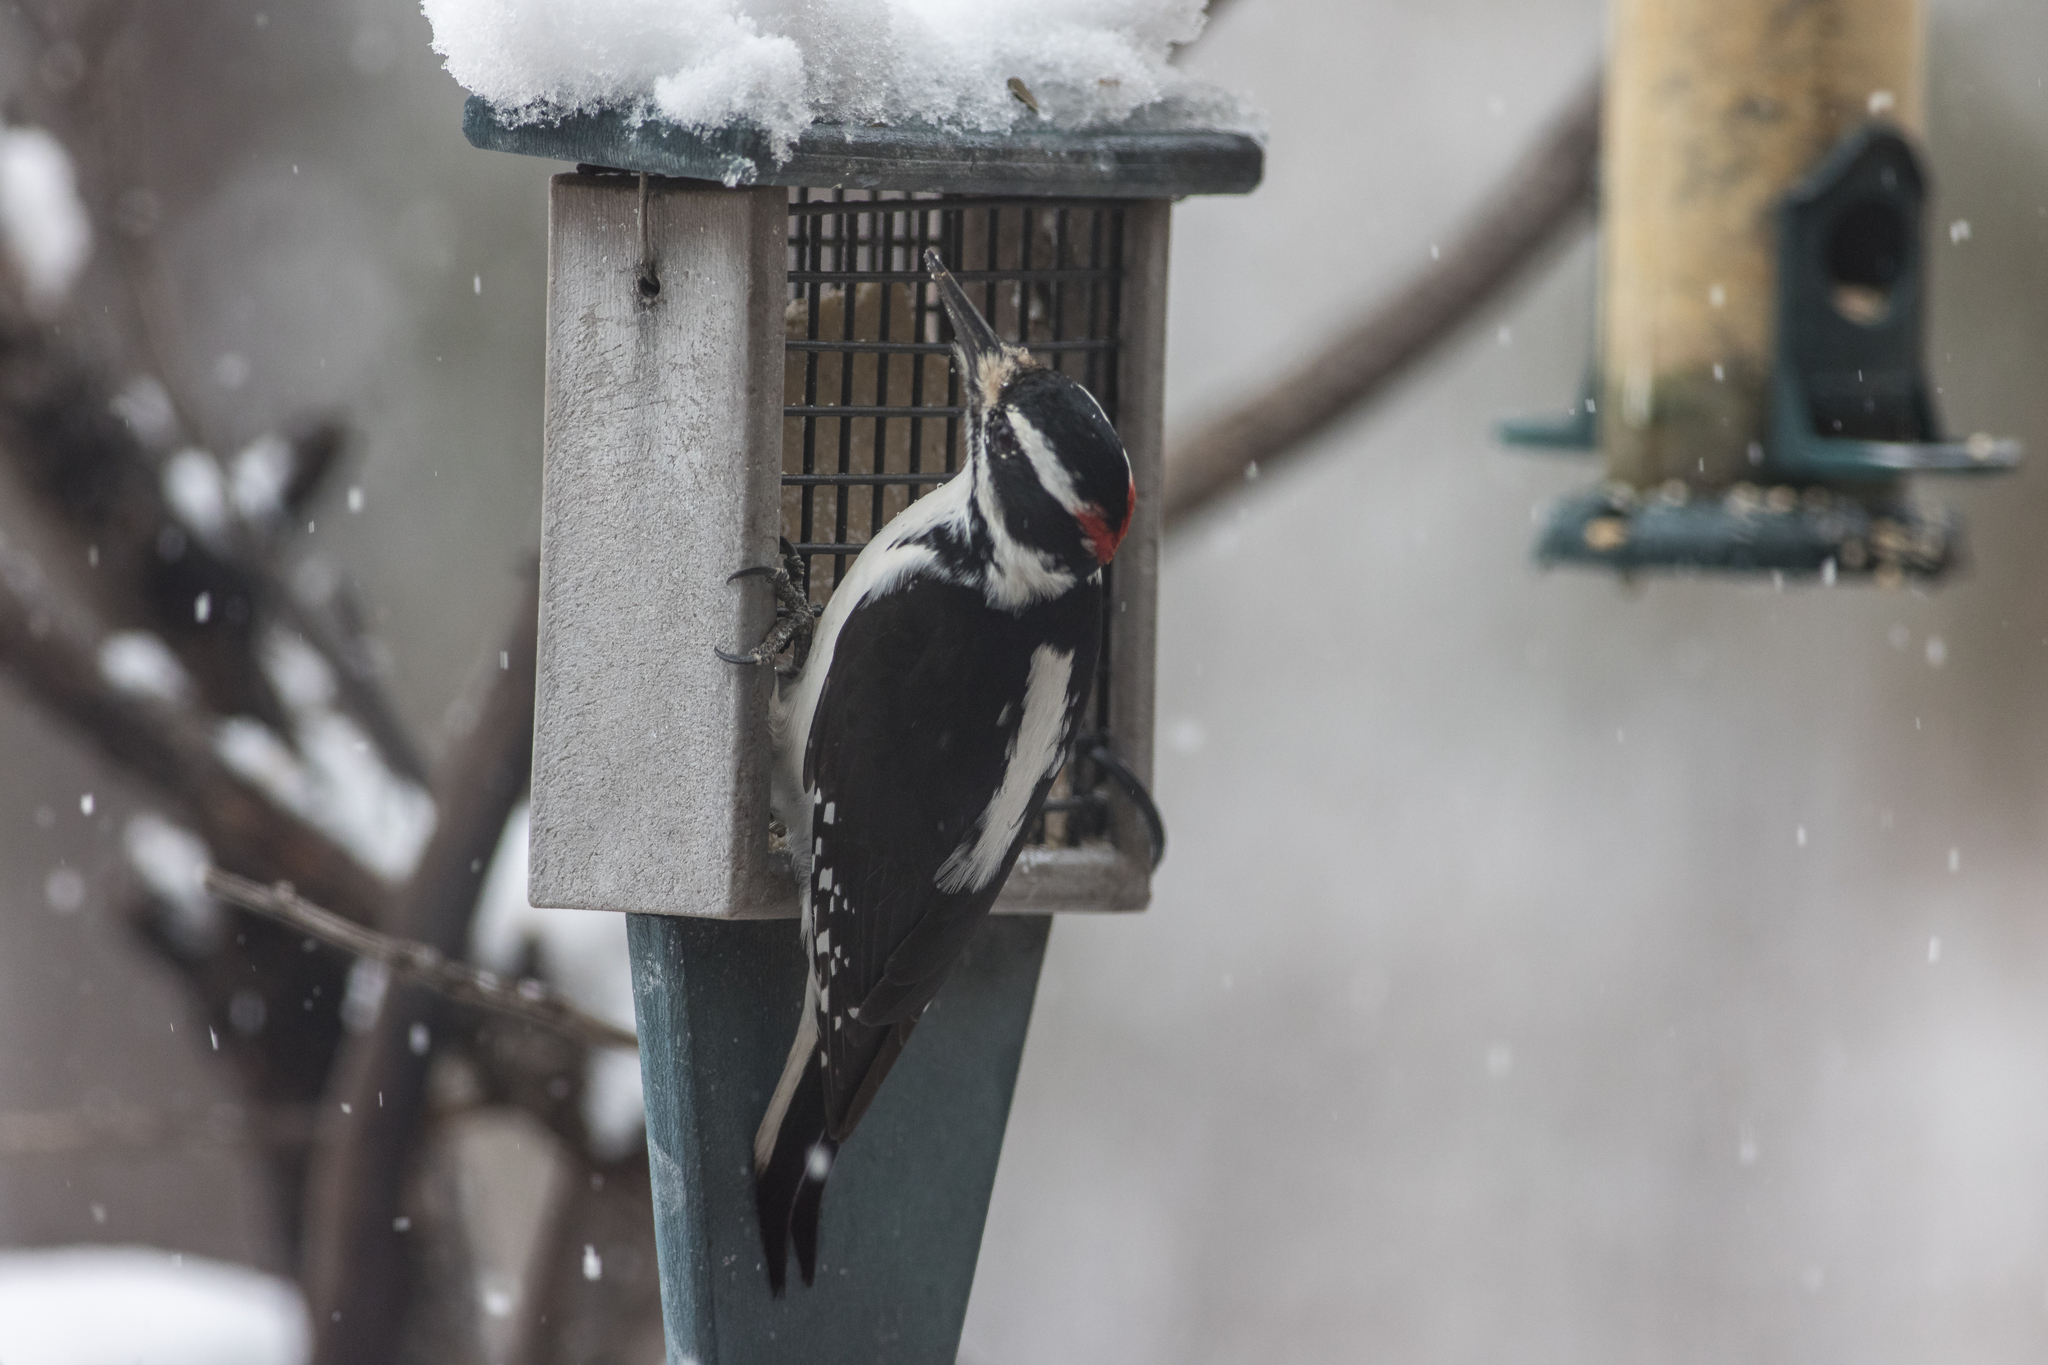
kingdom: Animalia
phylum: Chordata
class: Aves
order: Piciformes
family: Picidae
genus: Leuconotopicus
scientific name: Leuconotopicus villosus
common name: Hairy woodpecker
